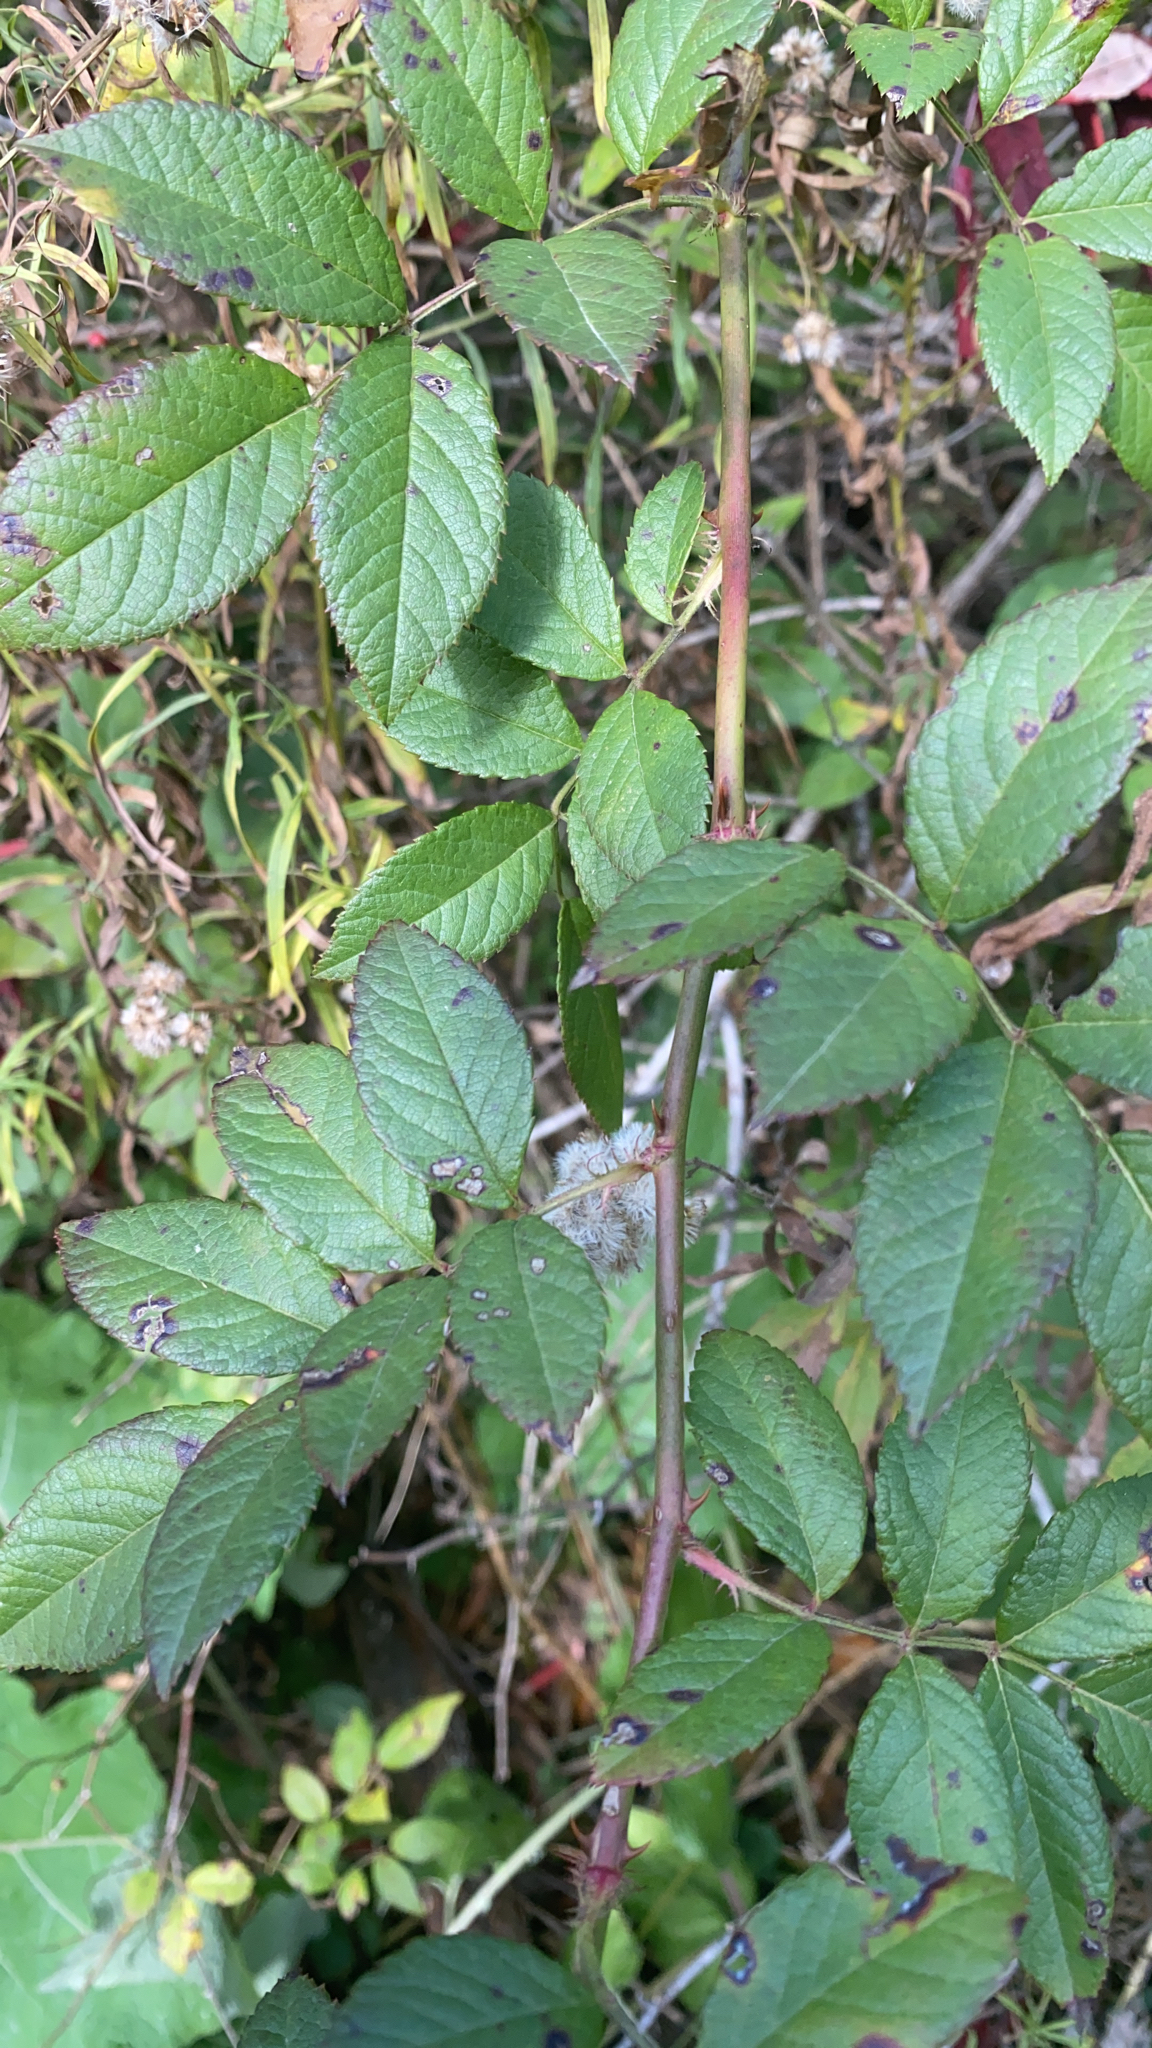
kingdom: Plantae
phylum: Tracheophyta
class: Magnoliopsida
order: Rosales
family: Rosaceae
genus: Rosa
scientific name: Rosa multiflora
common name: Multiflora rose
